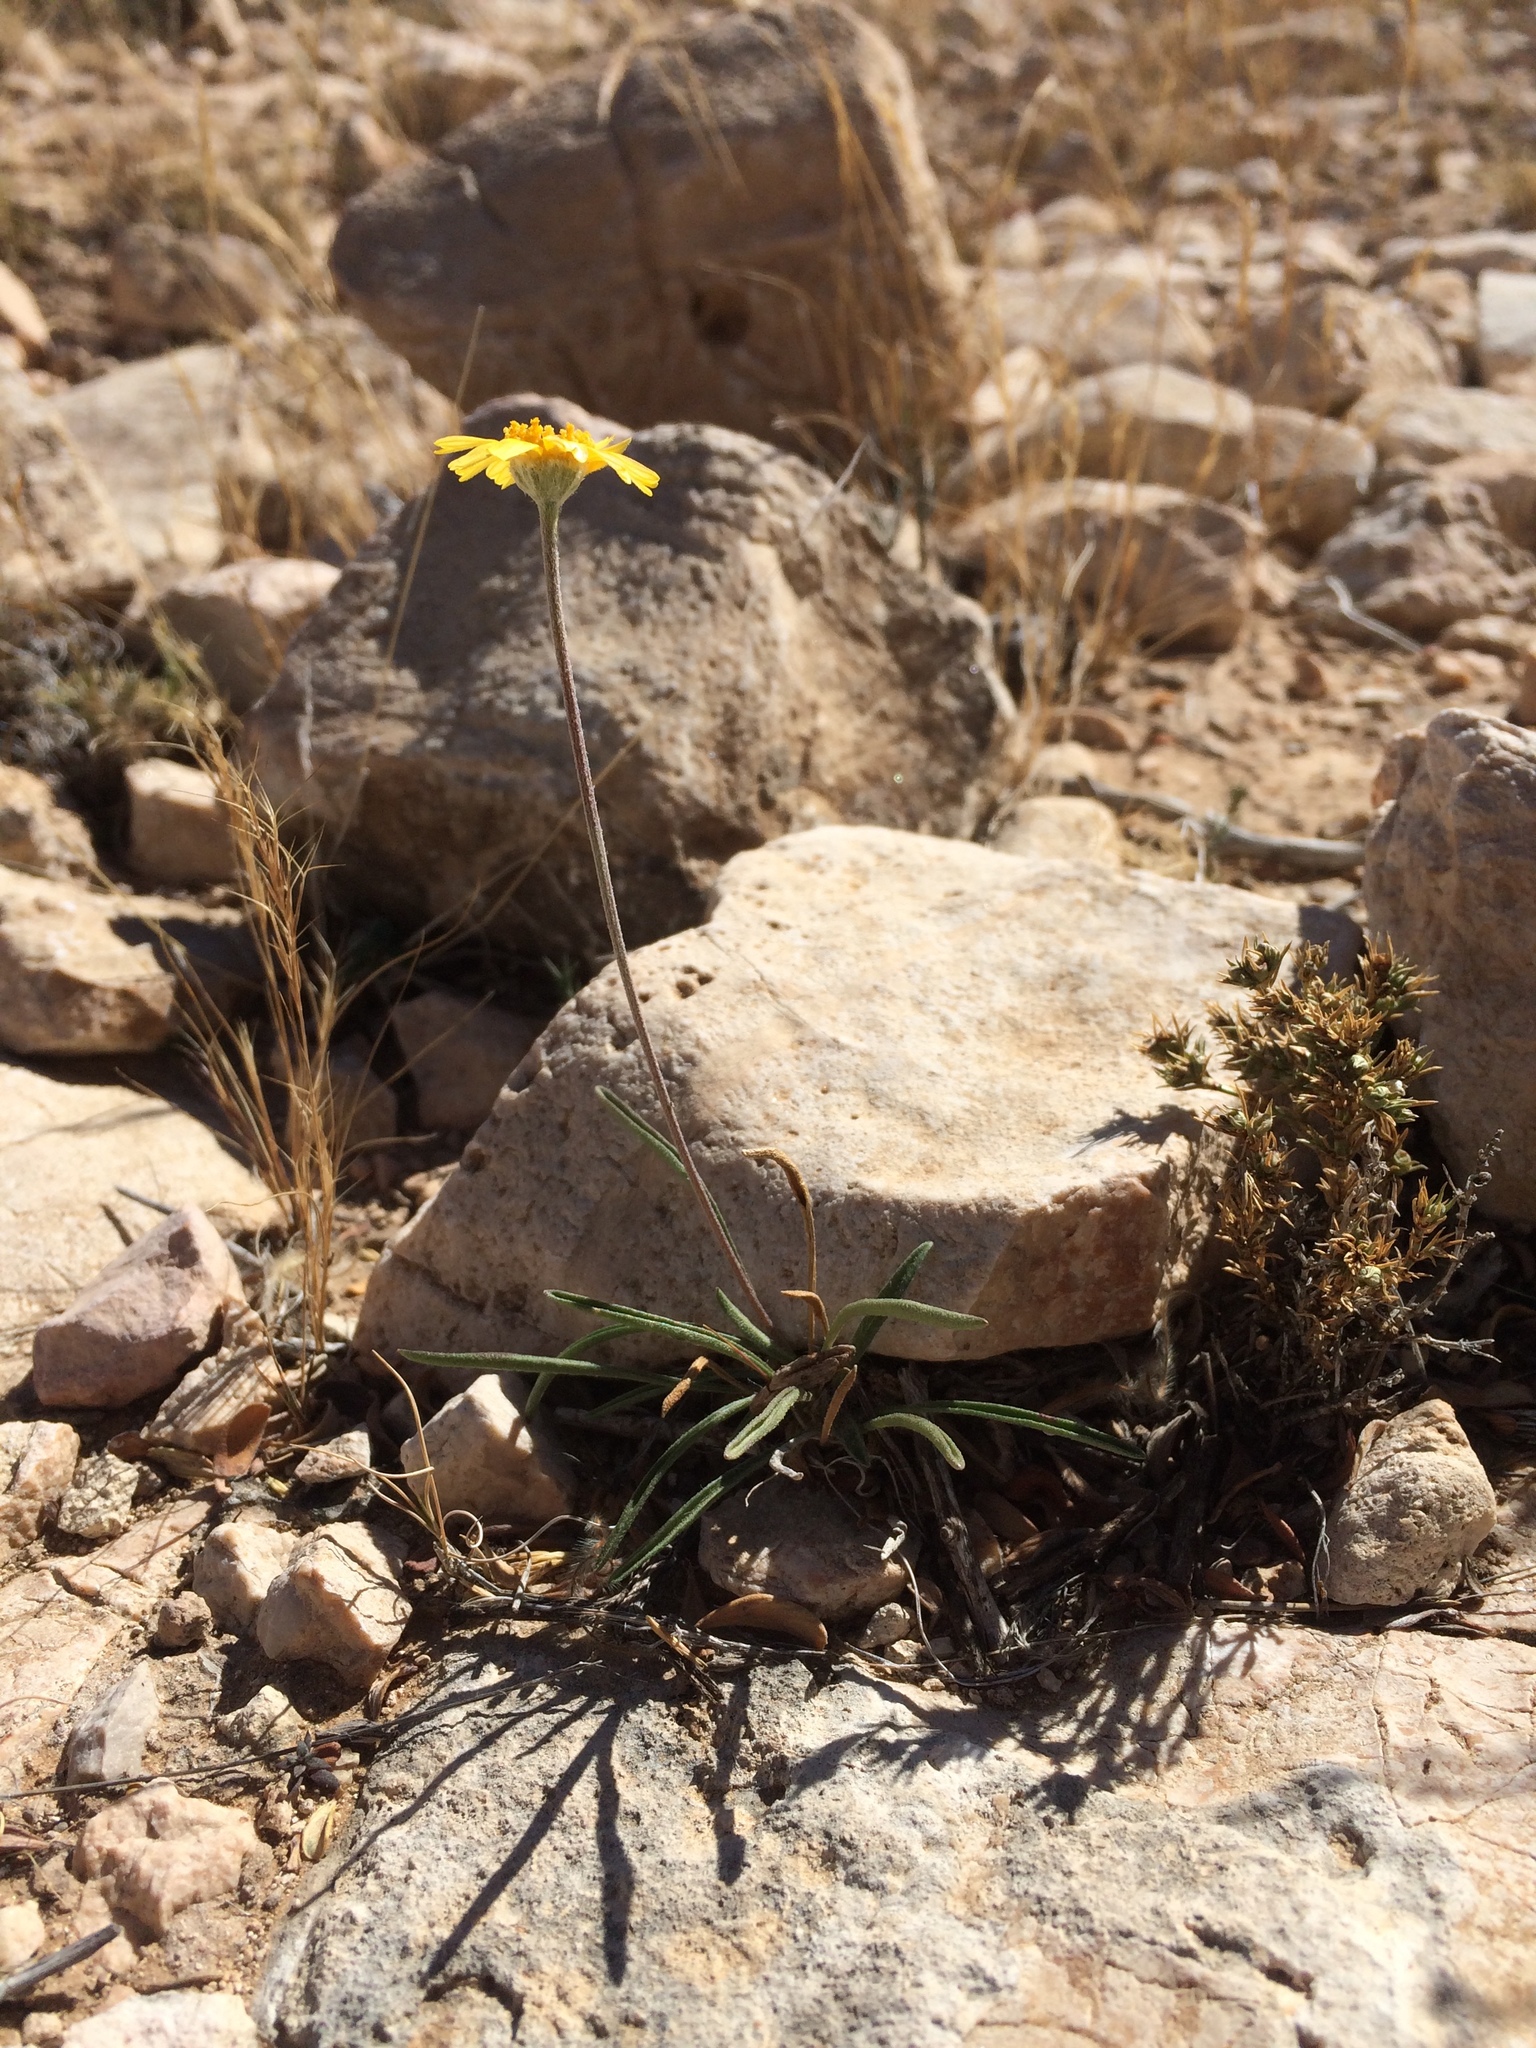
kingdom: Plantae
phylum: Tracheophyta
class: Magnoliopsida
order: Asterales
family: Asteraceae
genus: Tetraneuris
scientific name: Tetraneuris scaposa
